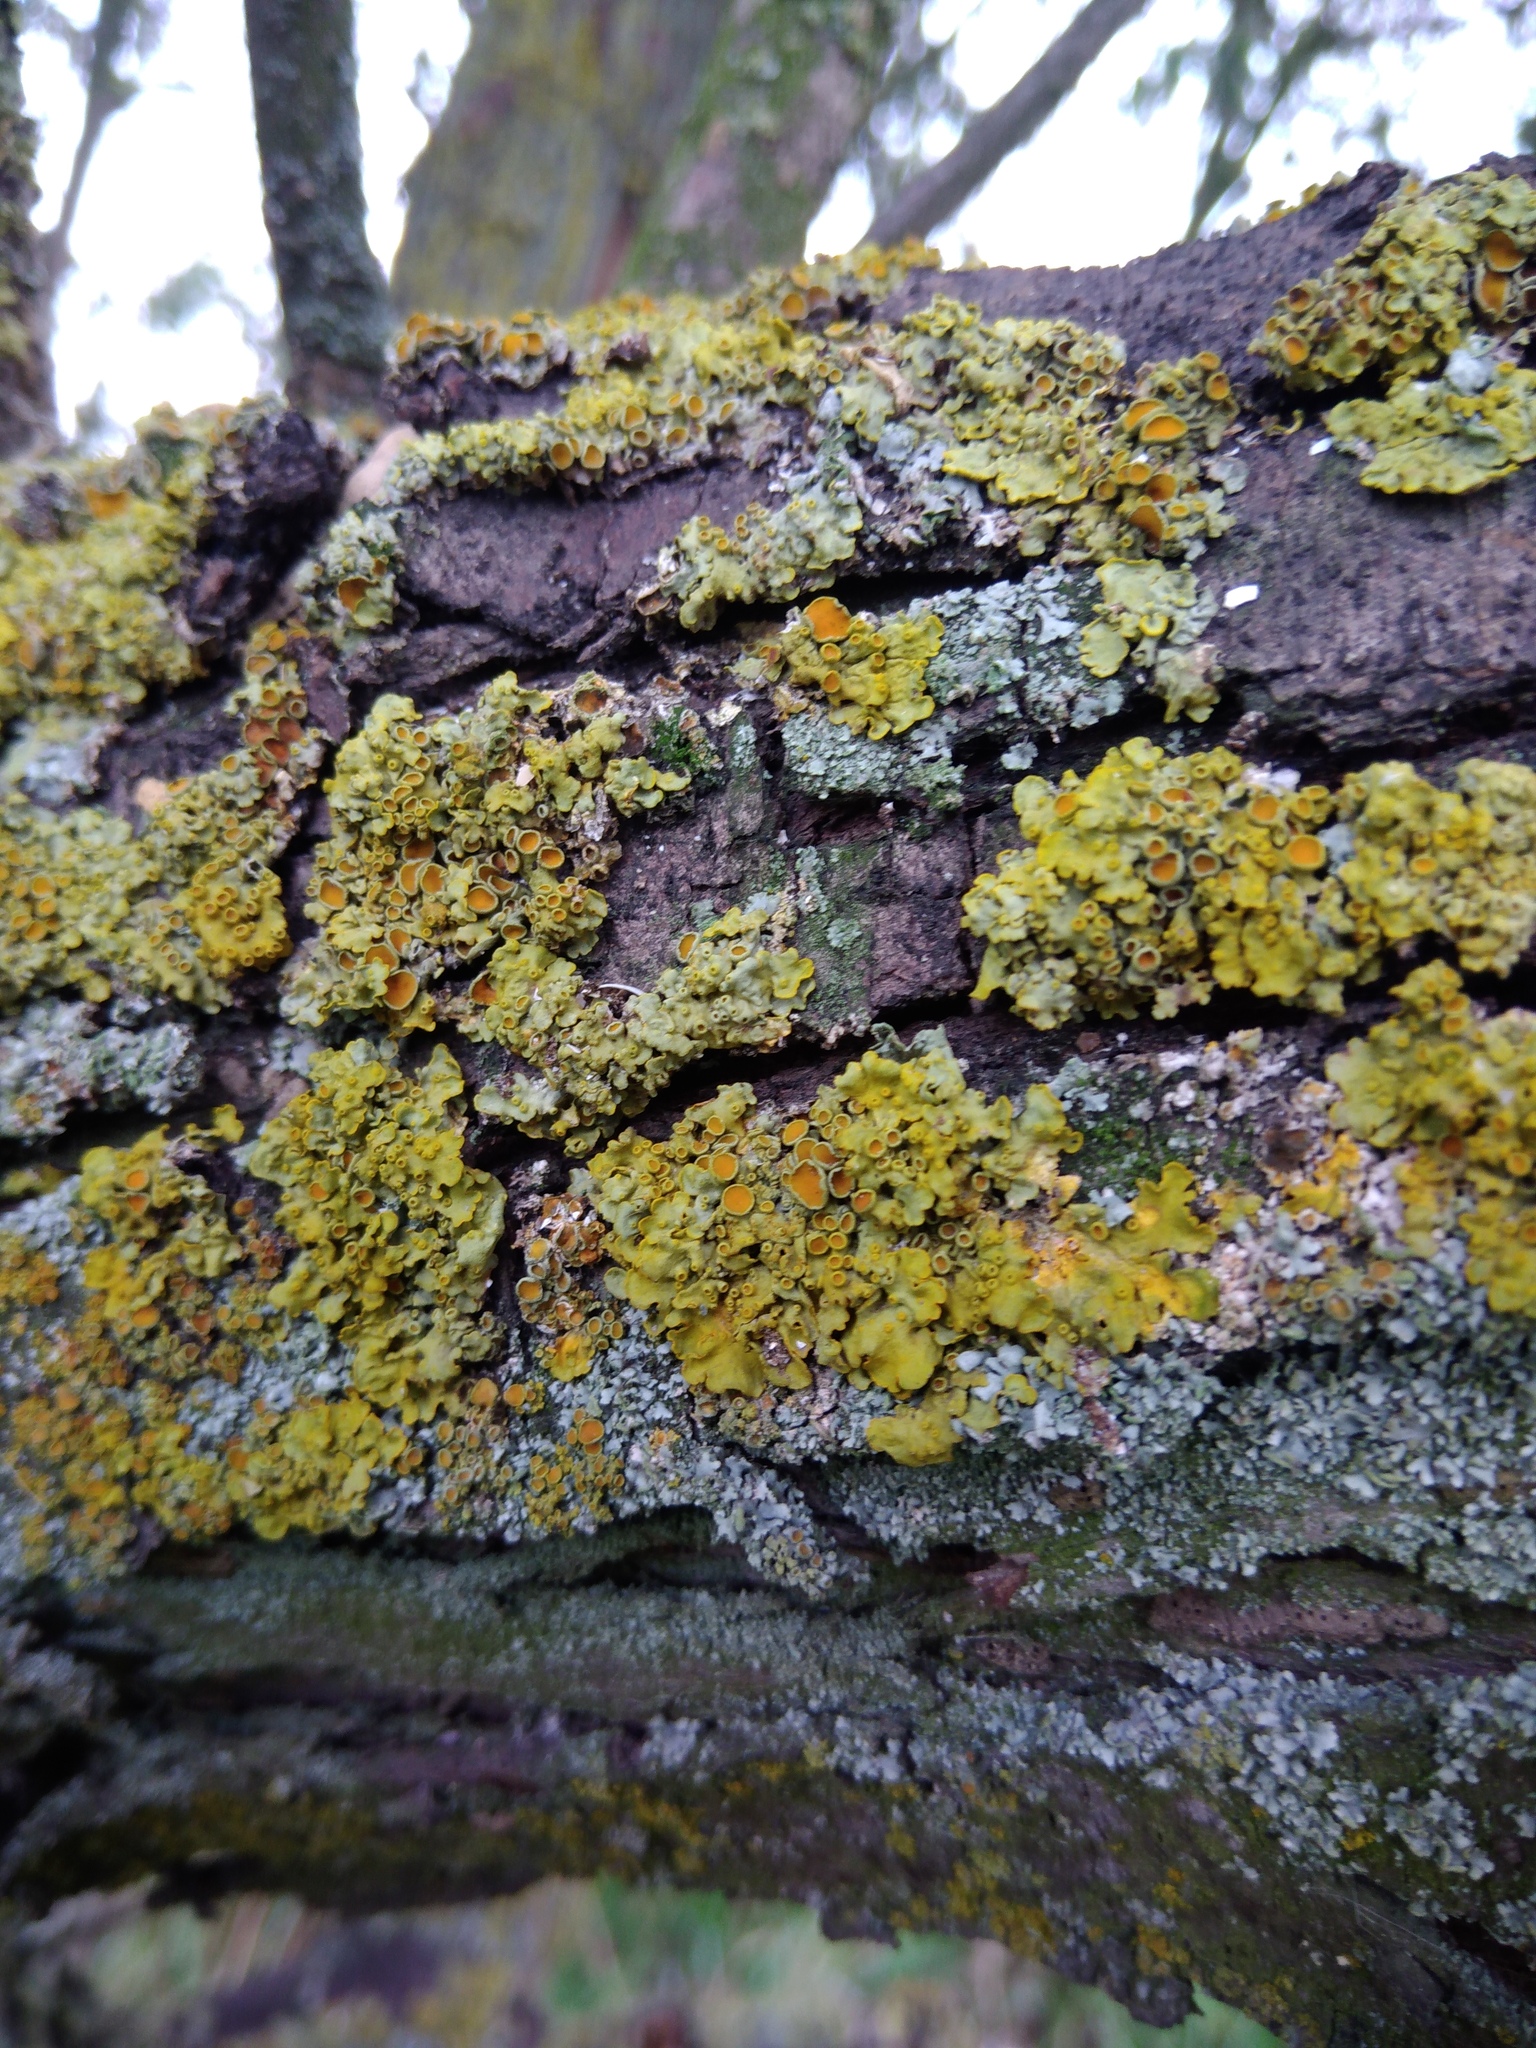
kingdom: Fungi
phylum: Ascomycota
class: Lecanoromycetes
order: Teloschistales
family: Teloschistaceae
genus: Xanthoria
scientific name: Xanthoria parietina
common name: Common orange lichen
